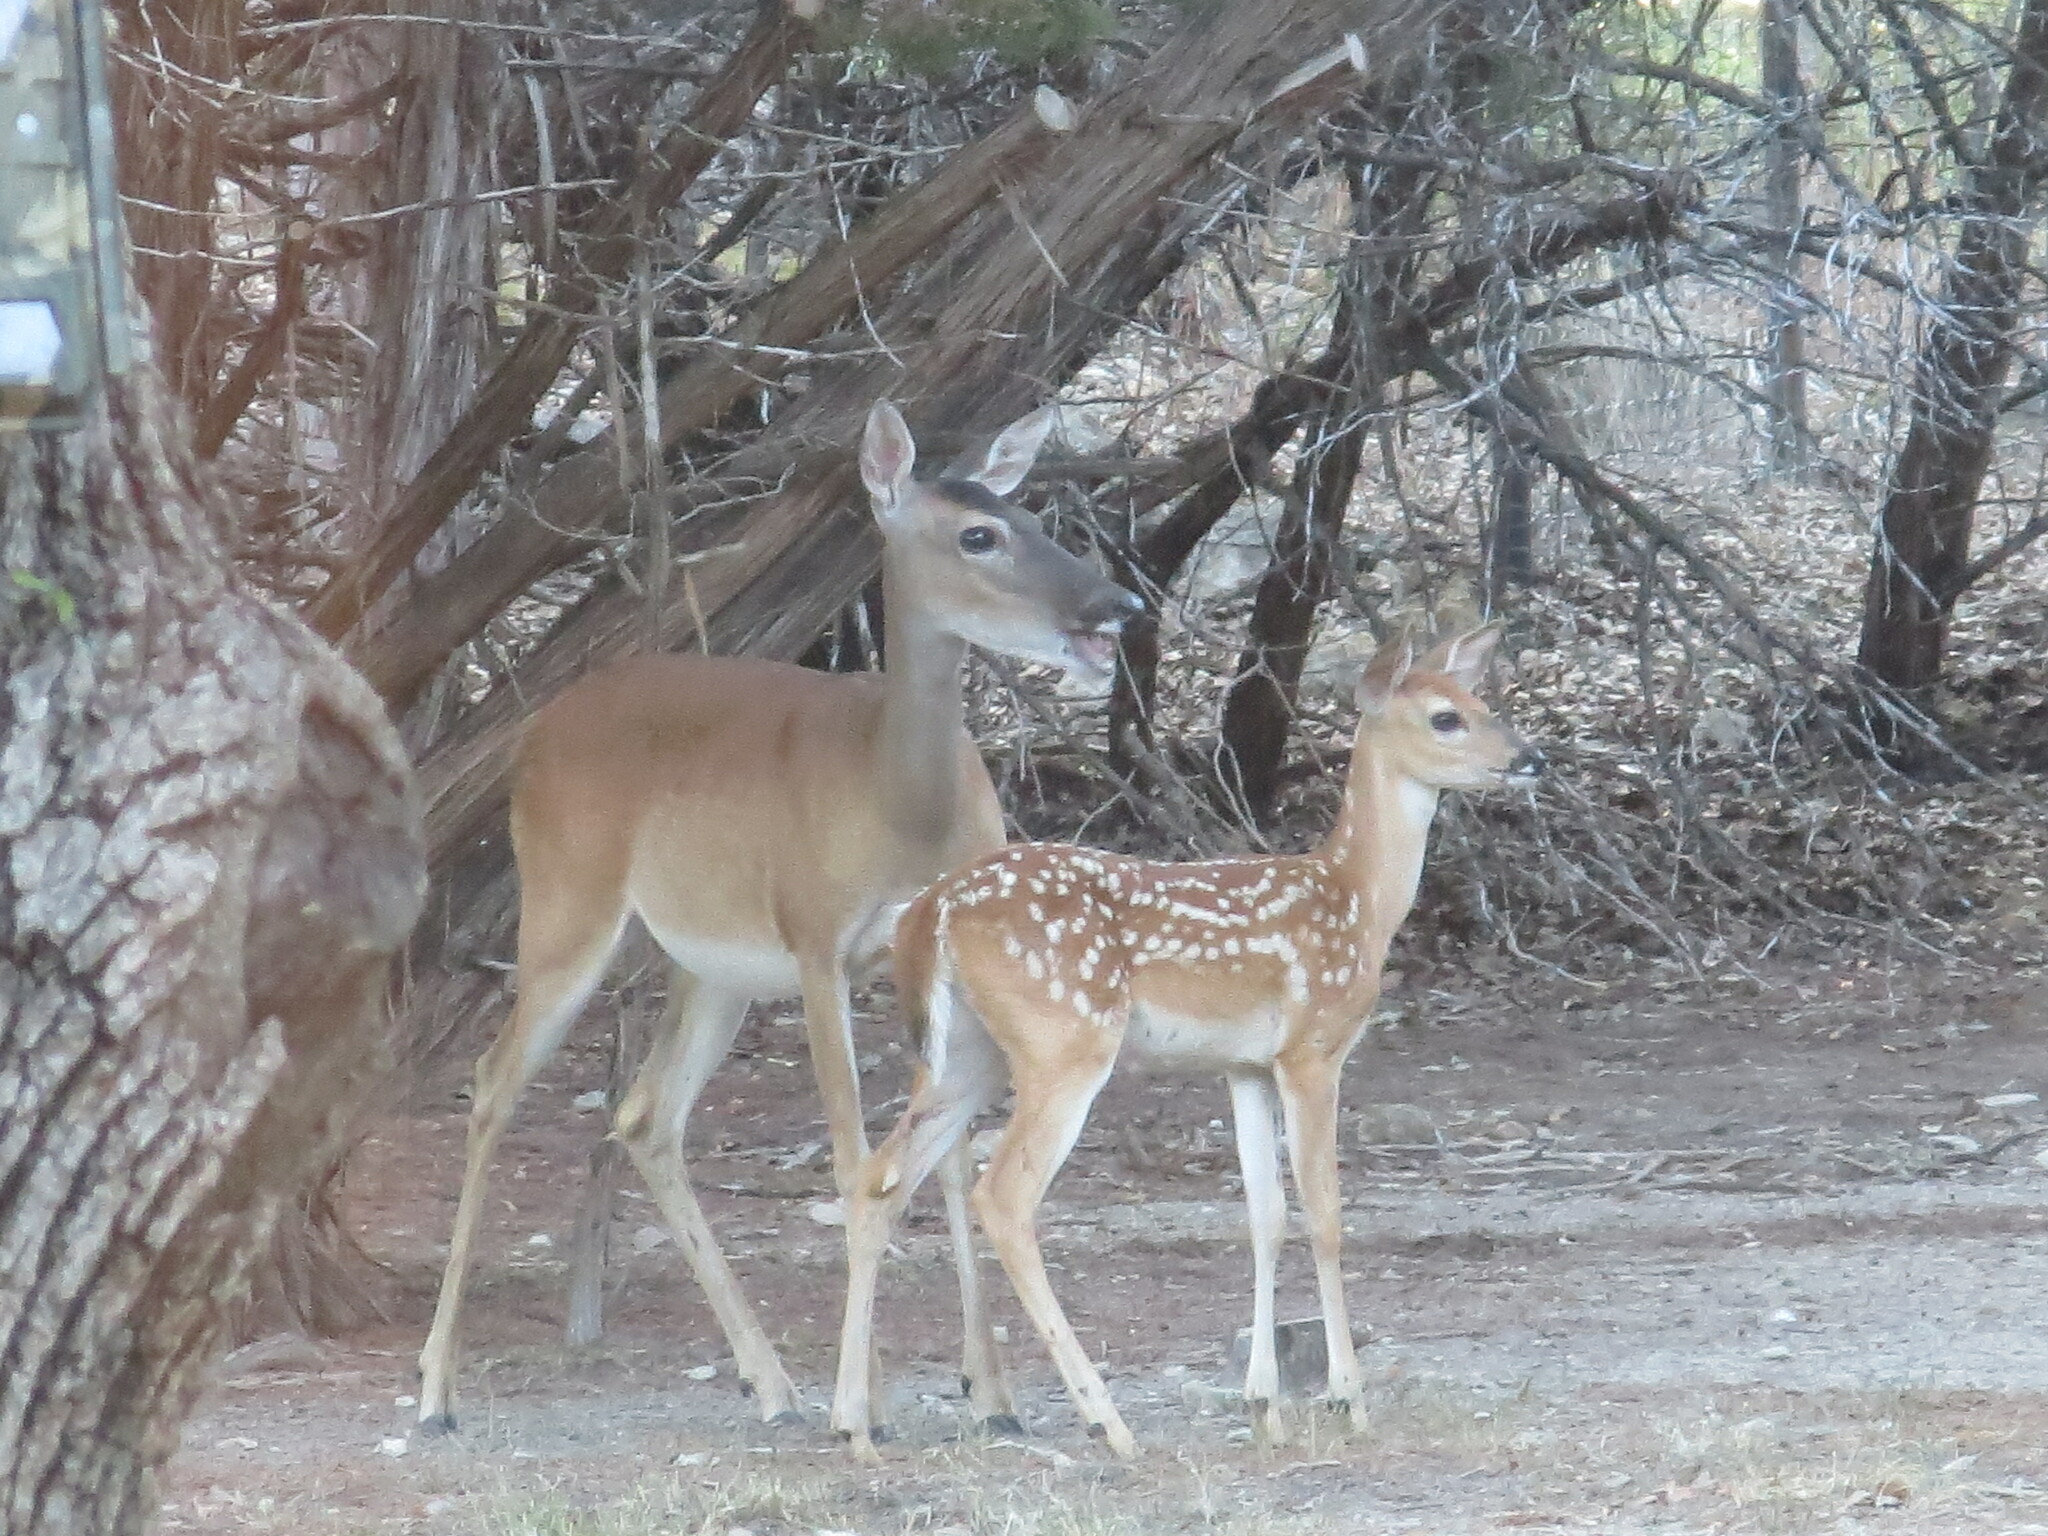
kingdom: Animalia
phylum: Chordata
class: Mammalia
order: Artiodactyla
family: Cervidae
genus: Odocoileus
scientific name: Odocoileus virginianus
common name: White-tailed deer
